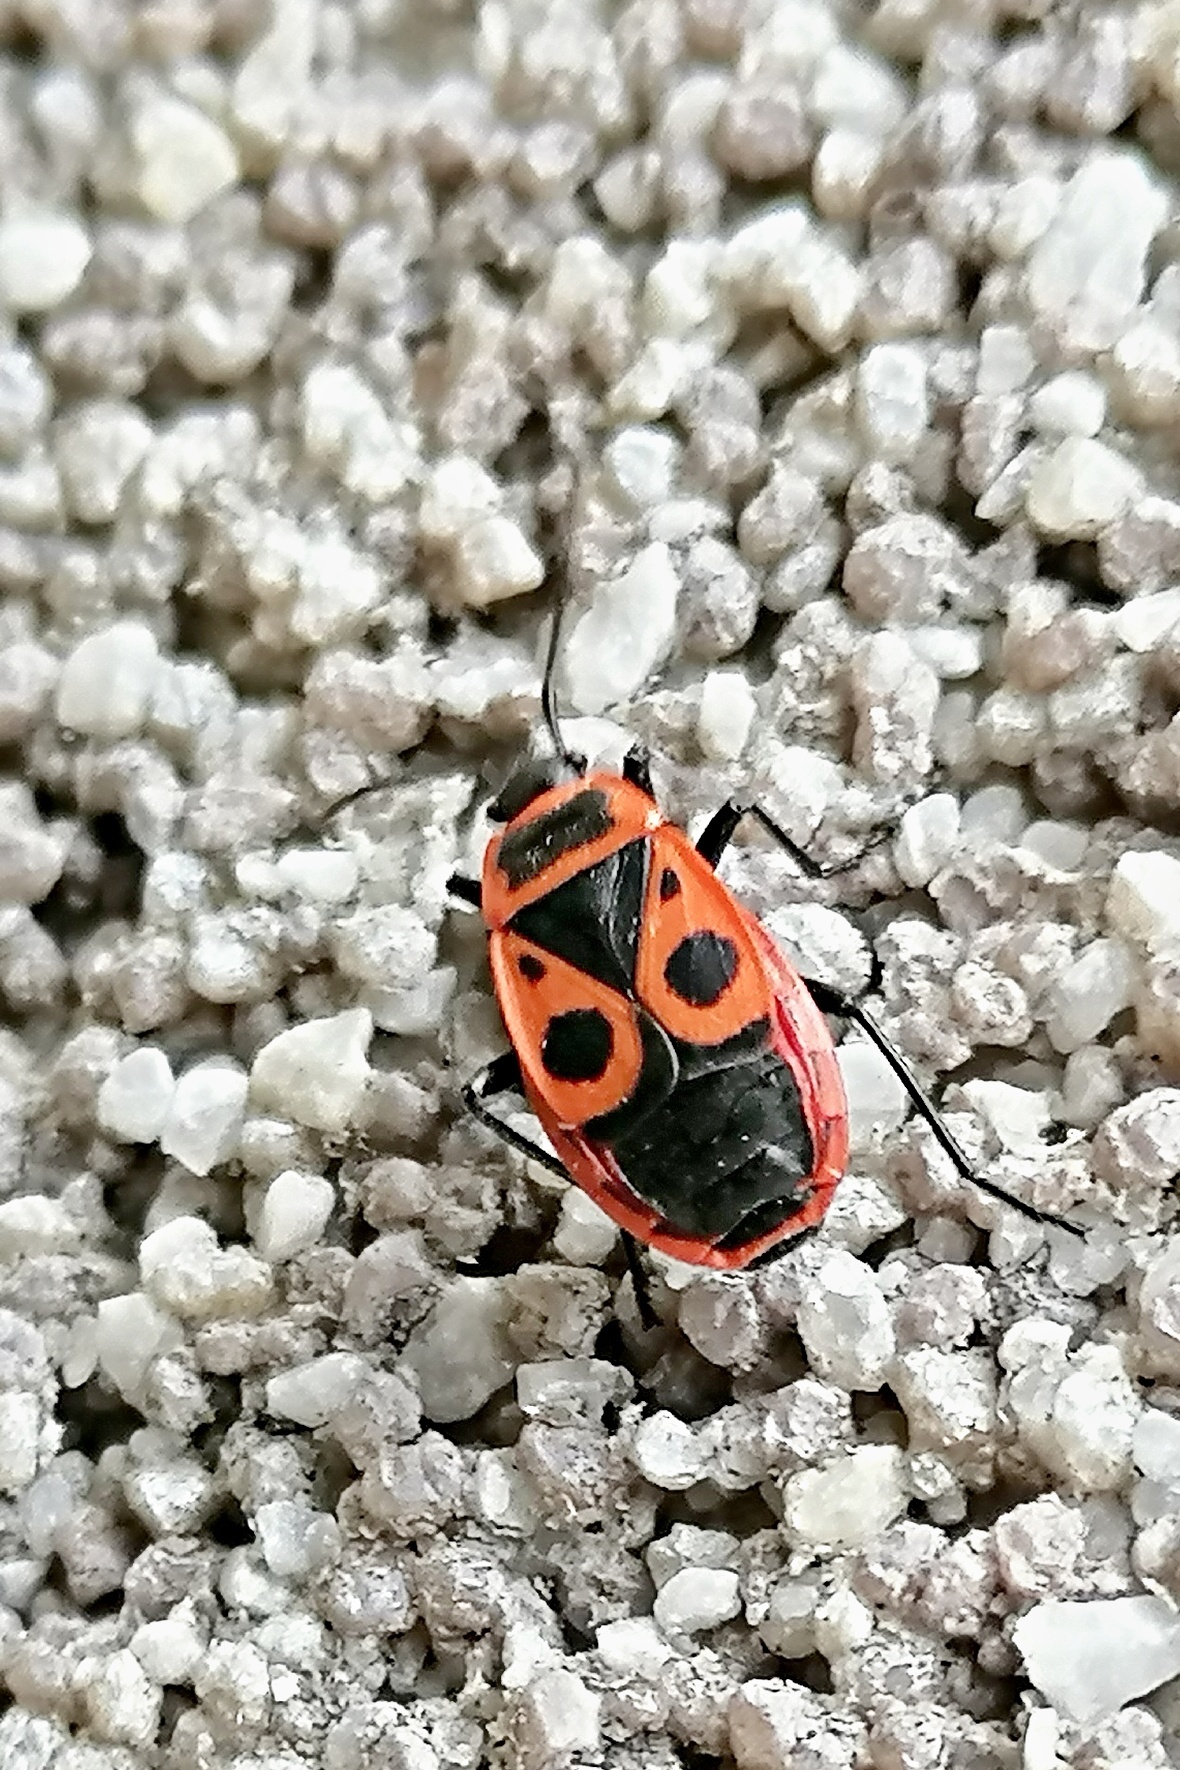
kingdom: Animalia
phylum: Arthropoda
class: Insecta
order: Hemiptera
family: Pyrrhocoridae
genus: Pyrrhocoris
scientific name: Pyrrhocoris apterus
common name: Firebug
